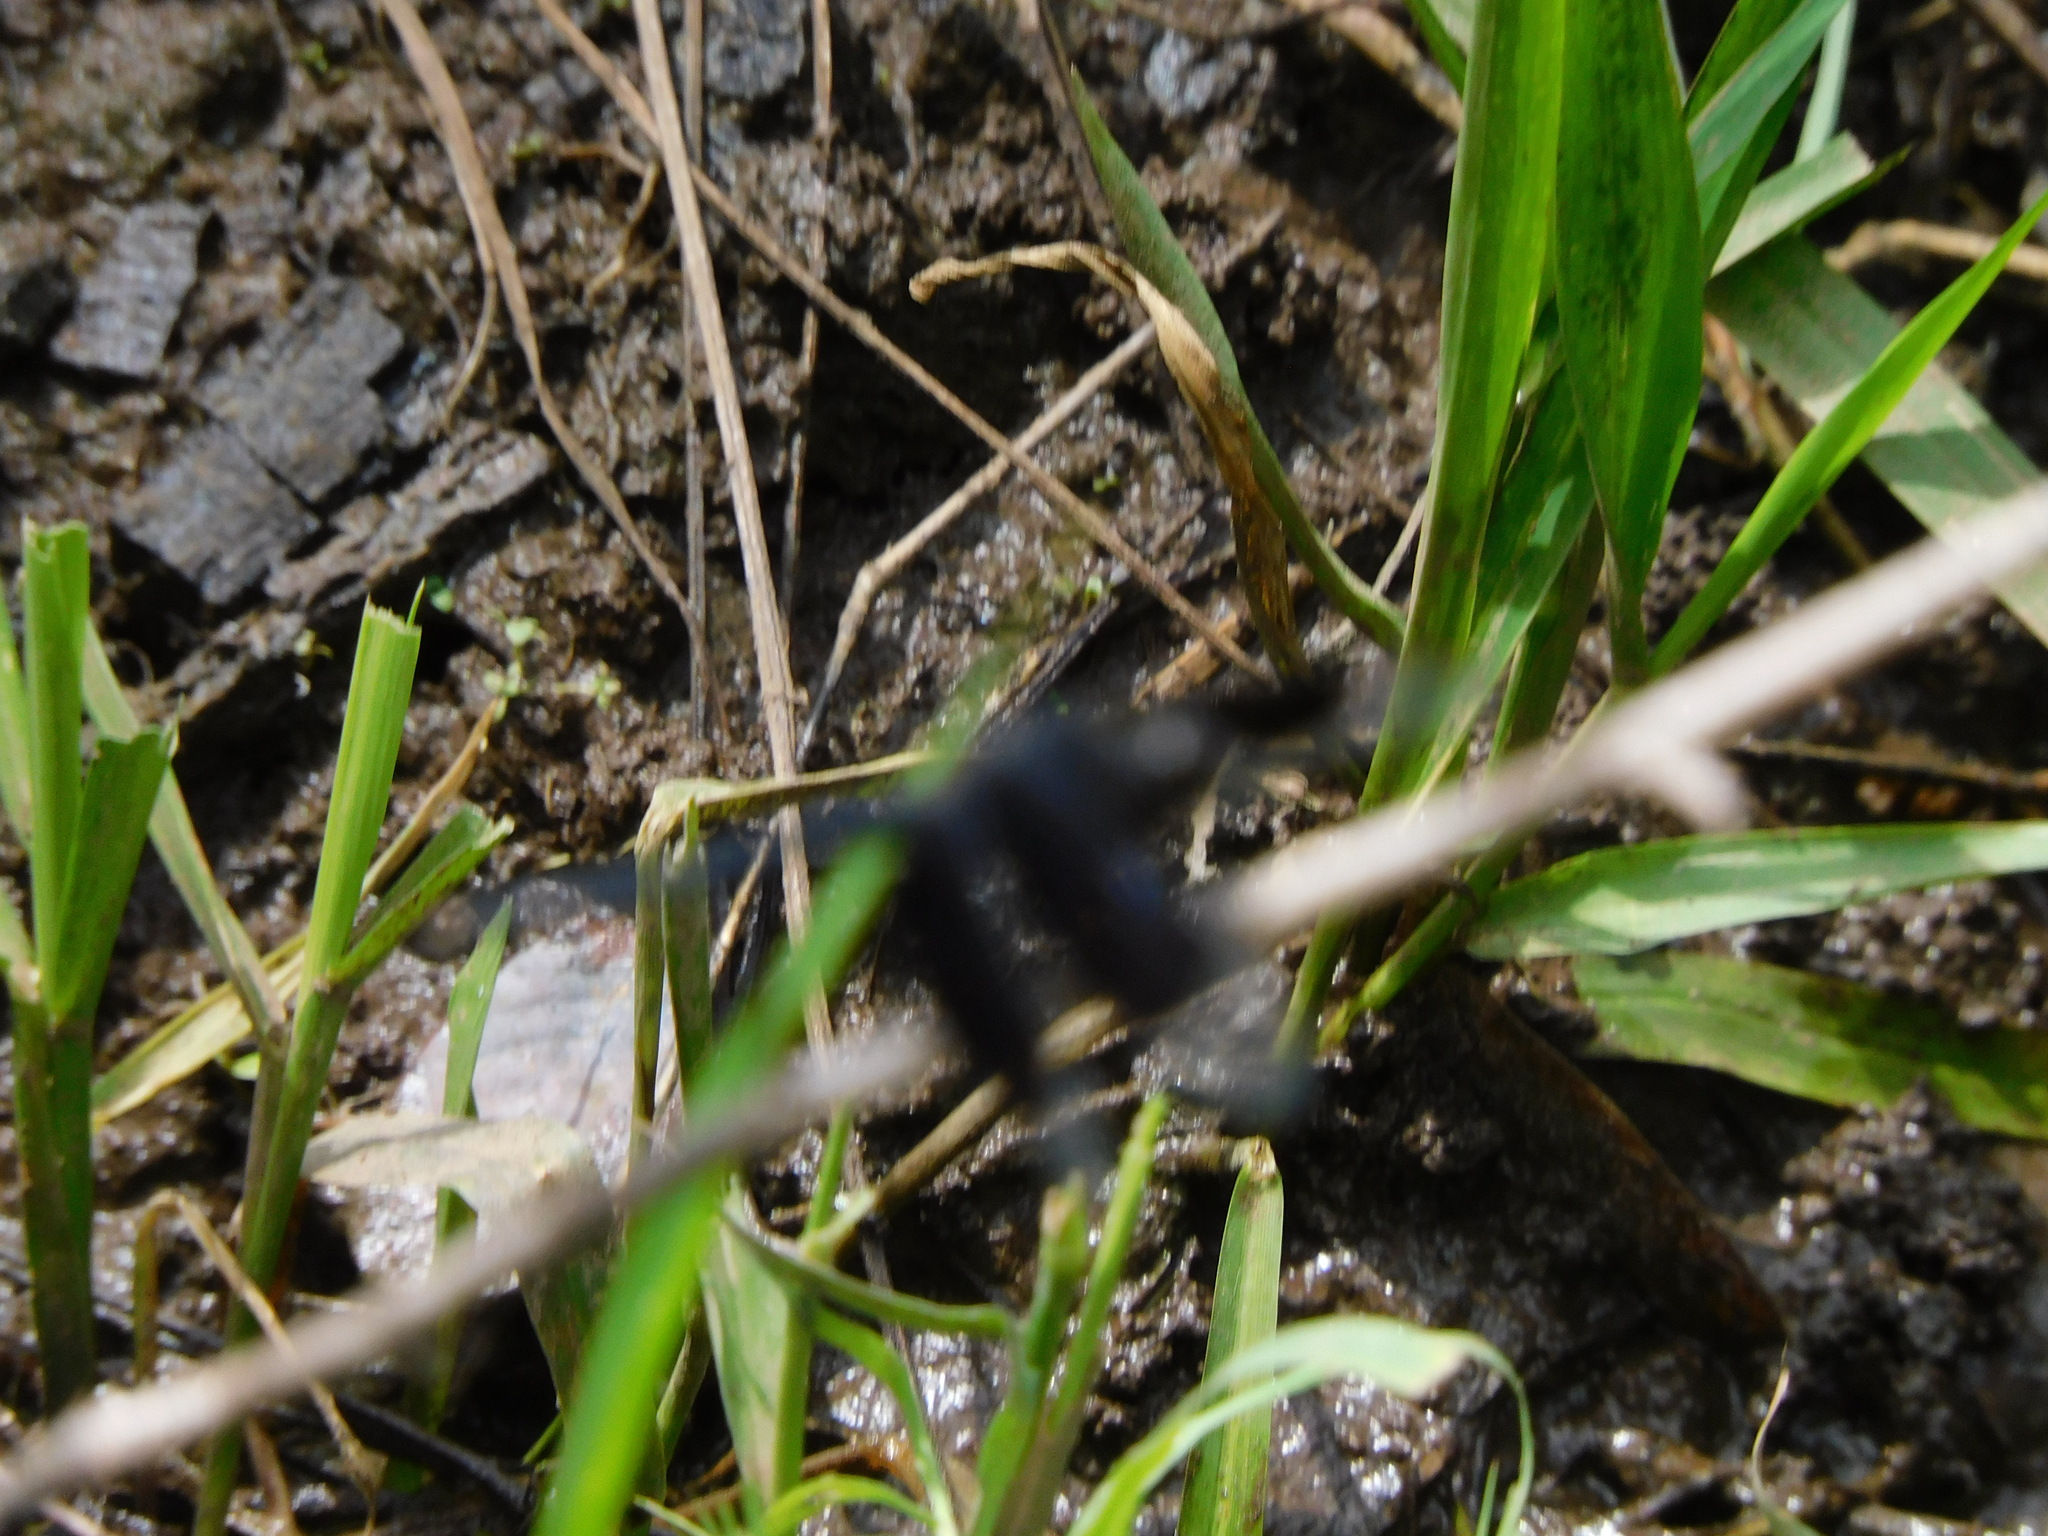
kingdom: Animalia
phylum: Arthropoda
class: Insecta
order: Odonata
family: Libellulidae
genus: Erythrodiplax
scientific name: Erythrodiplax funerea
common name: Black-winged dragonlet
